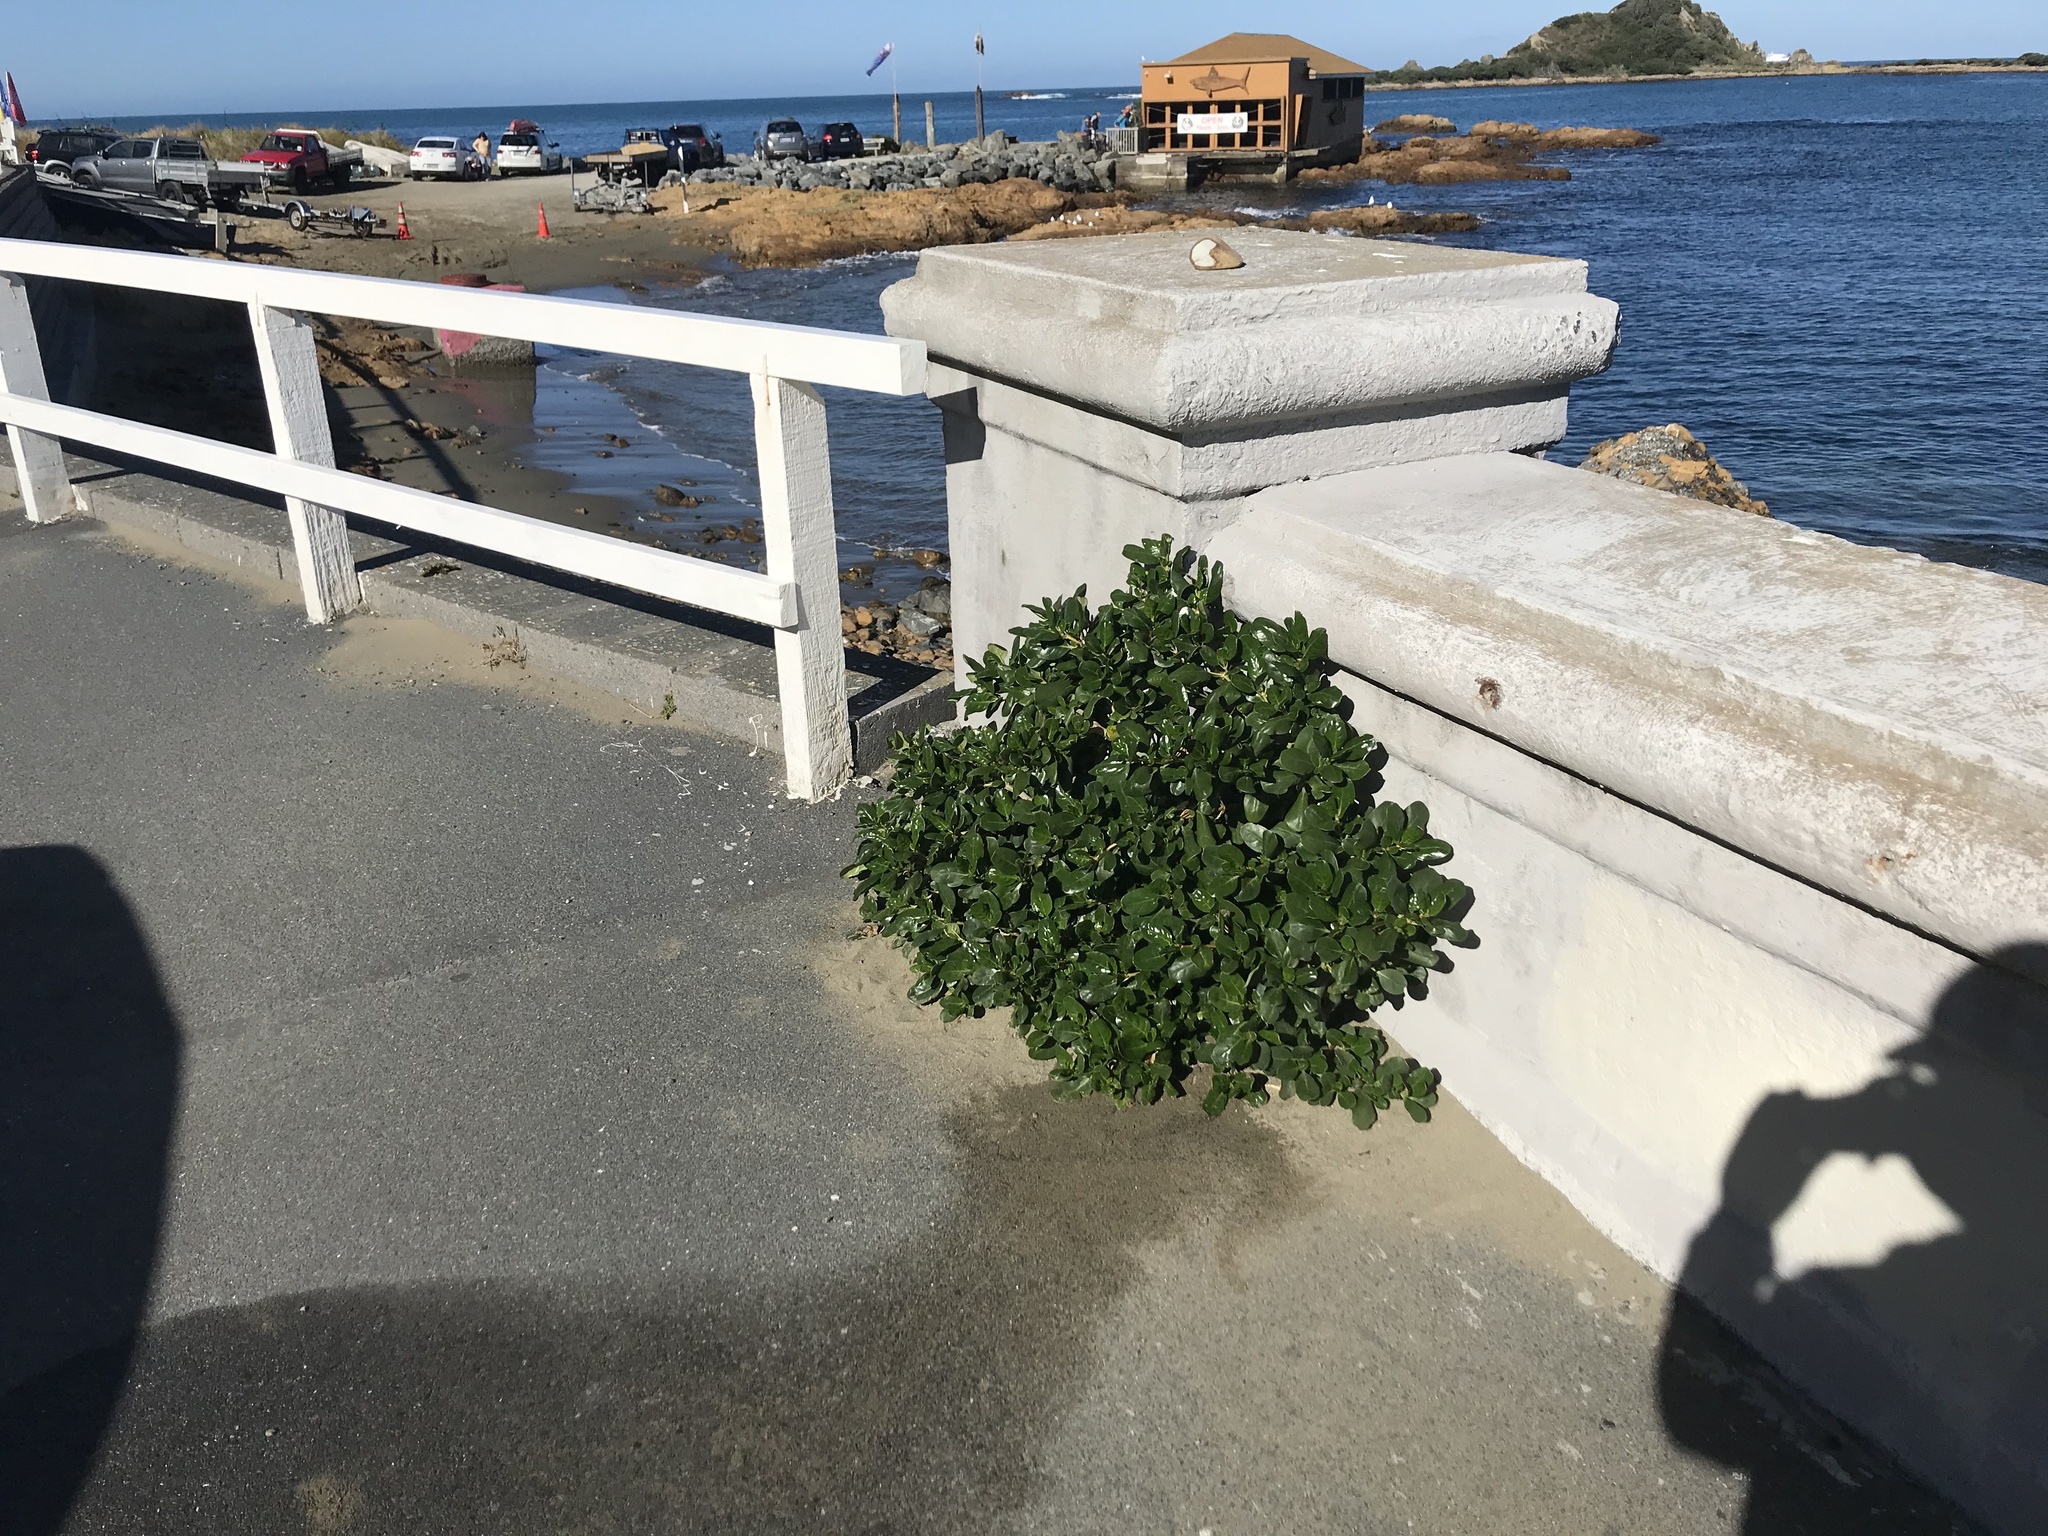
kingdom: Plantae
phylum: Tracheophyta
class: Magnoliopsida
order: Gentianales
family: Rubiaceae
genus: Coprosma
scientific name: Coprosma repens
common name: Tree bedstraw
